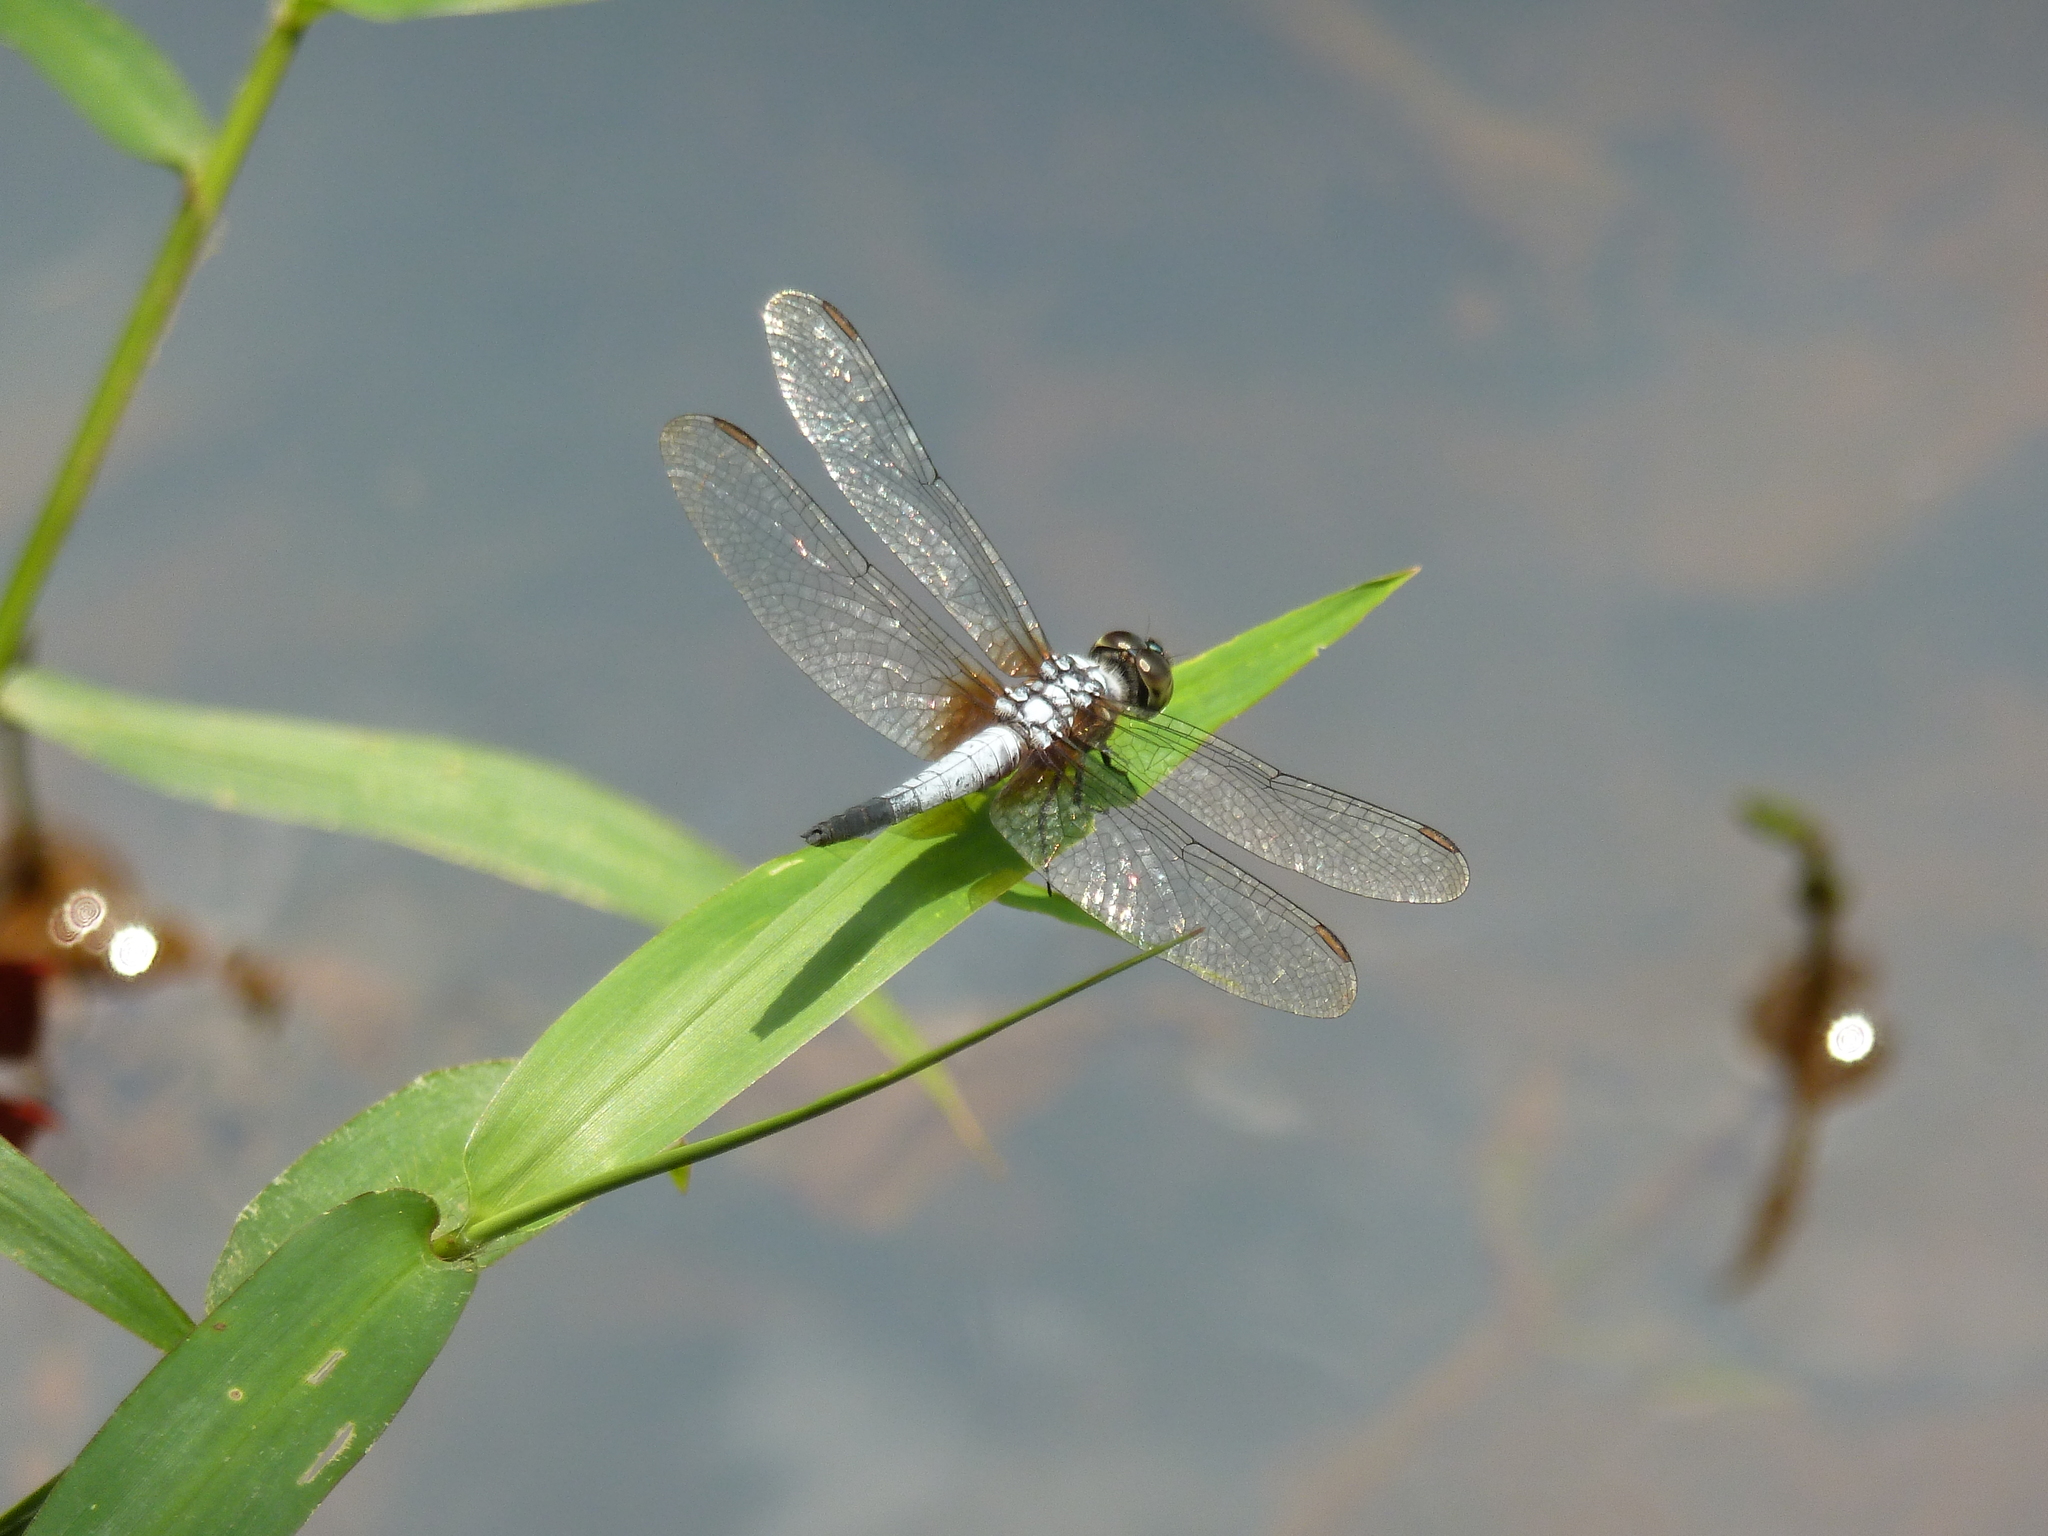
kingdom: Animalia
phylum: Arthropoda
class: Insecta
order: Odonata
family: Libellulidae
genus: Brachydiplax
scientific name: Brachydiplax chalybea
